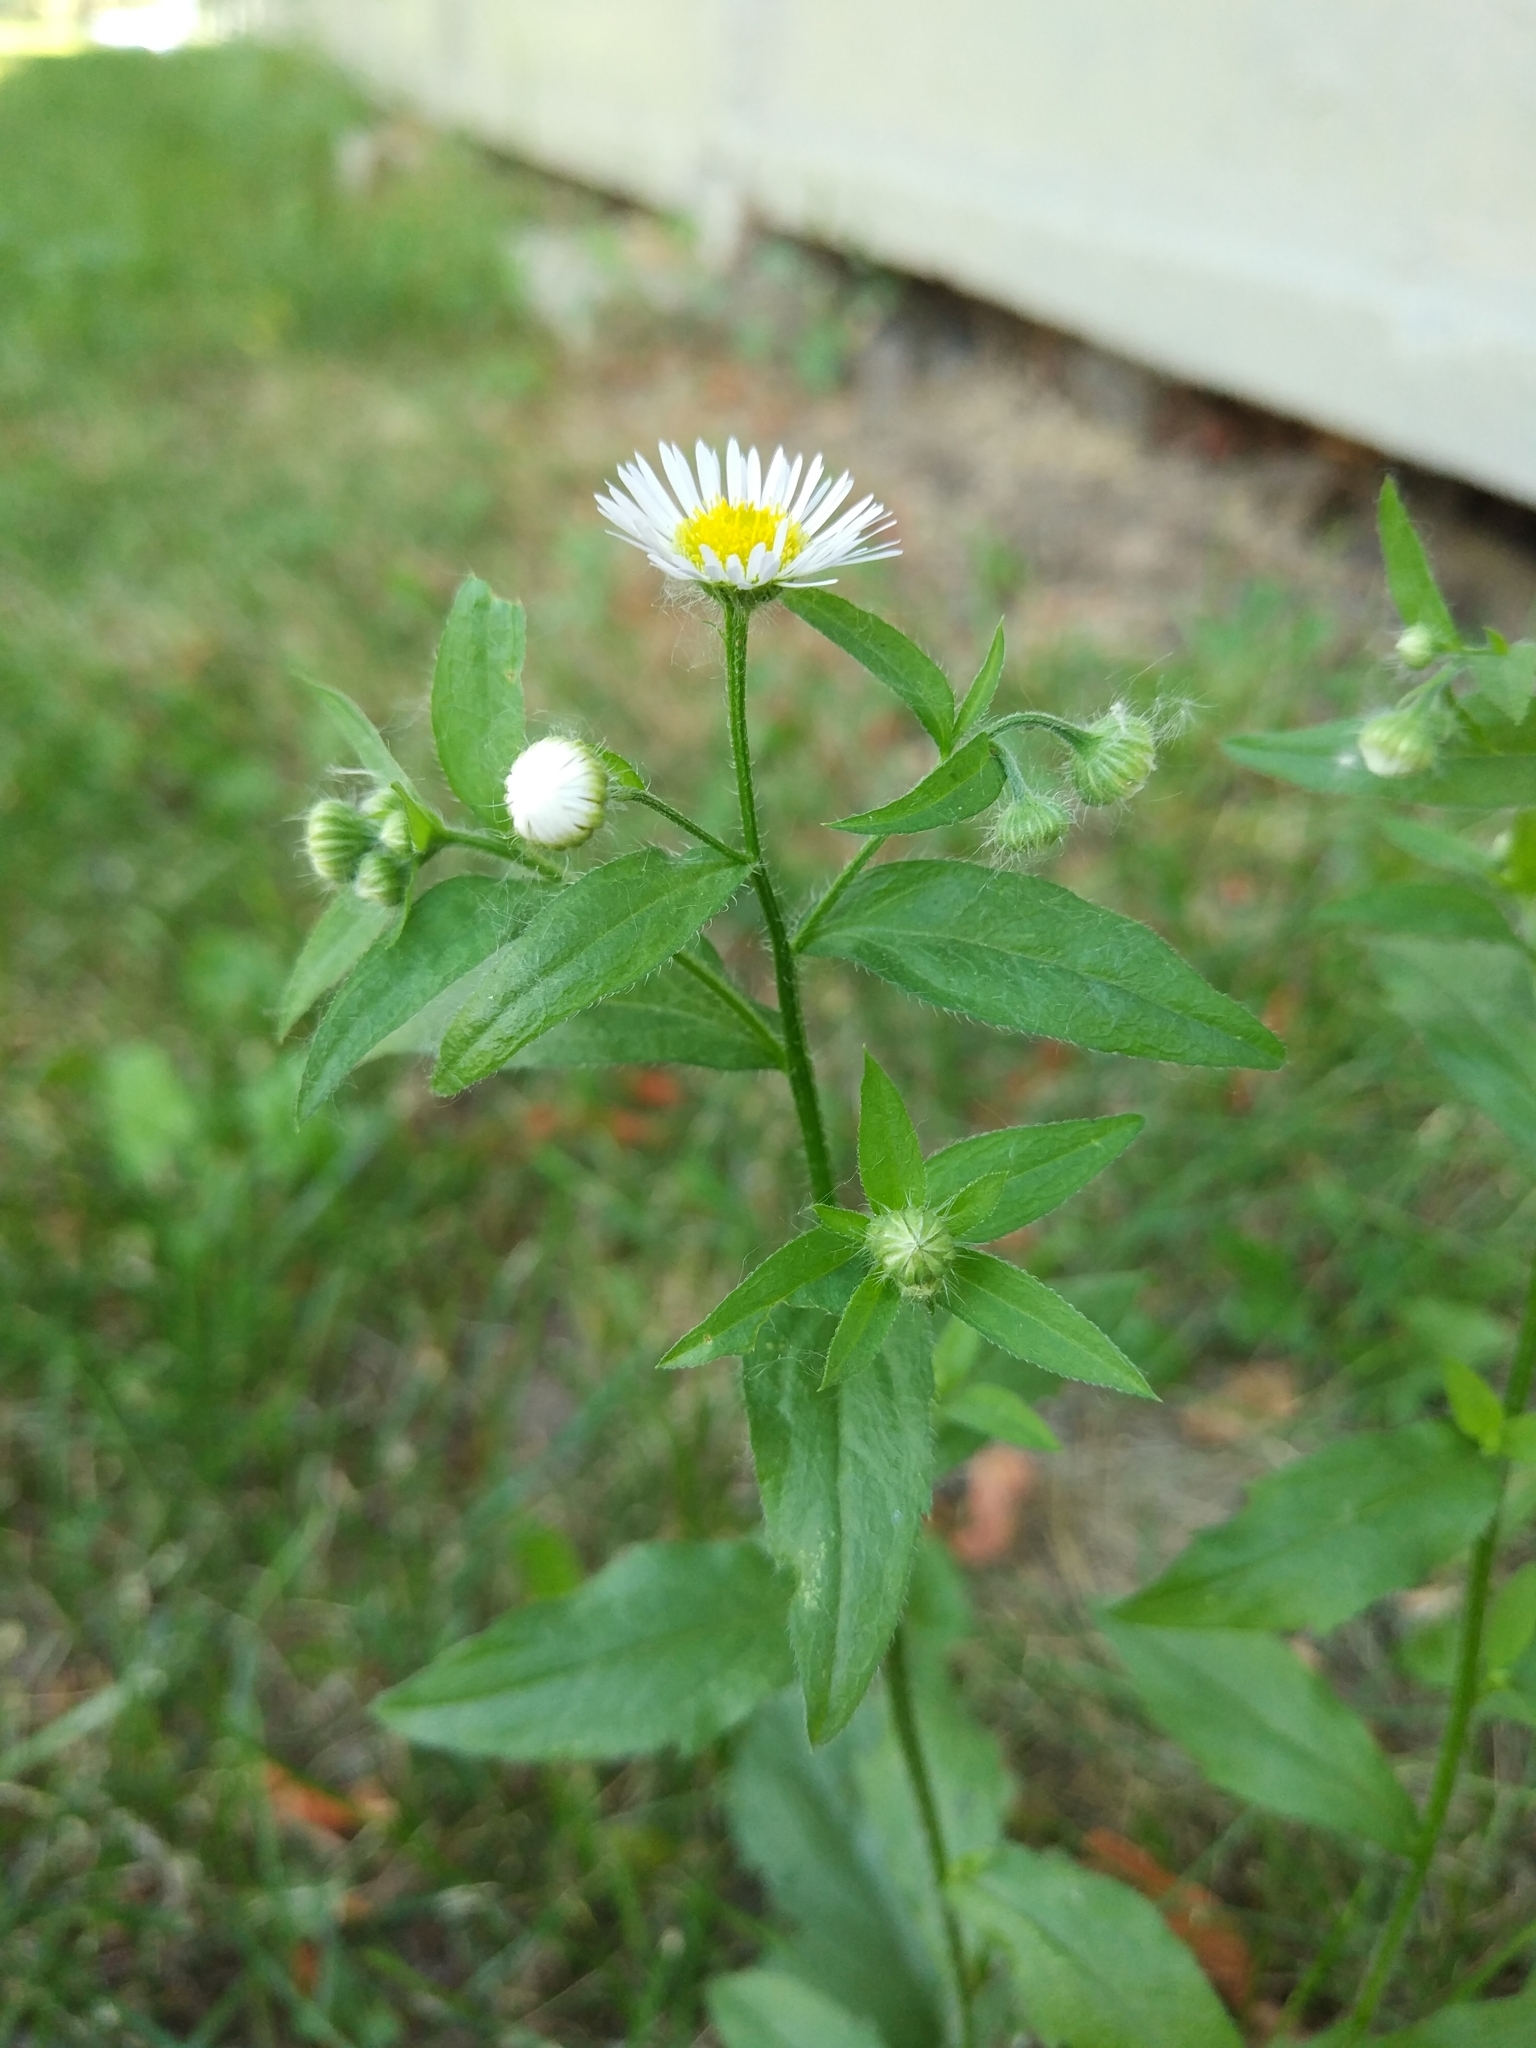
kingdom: Plantae
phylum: Tracheophyta
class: Magnoliopsida
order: Asterales
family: Asteraceae
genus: Erigeron
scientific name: Erigeron annuus
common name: Tall fleabane
